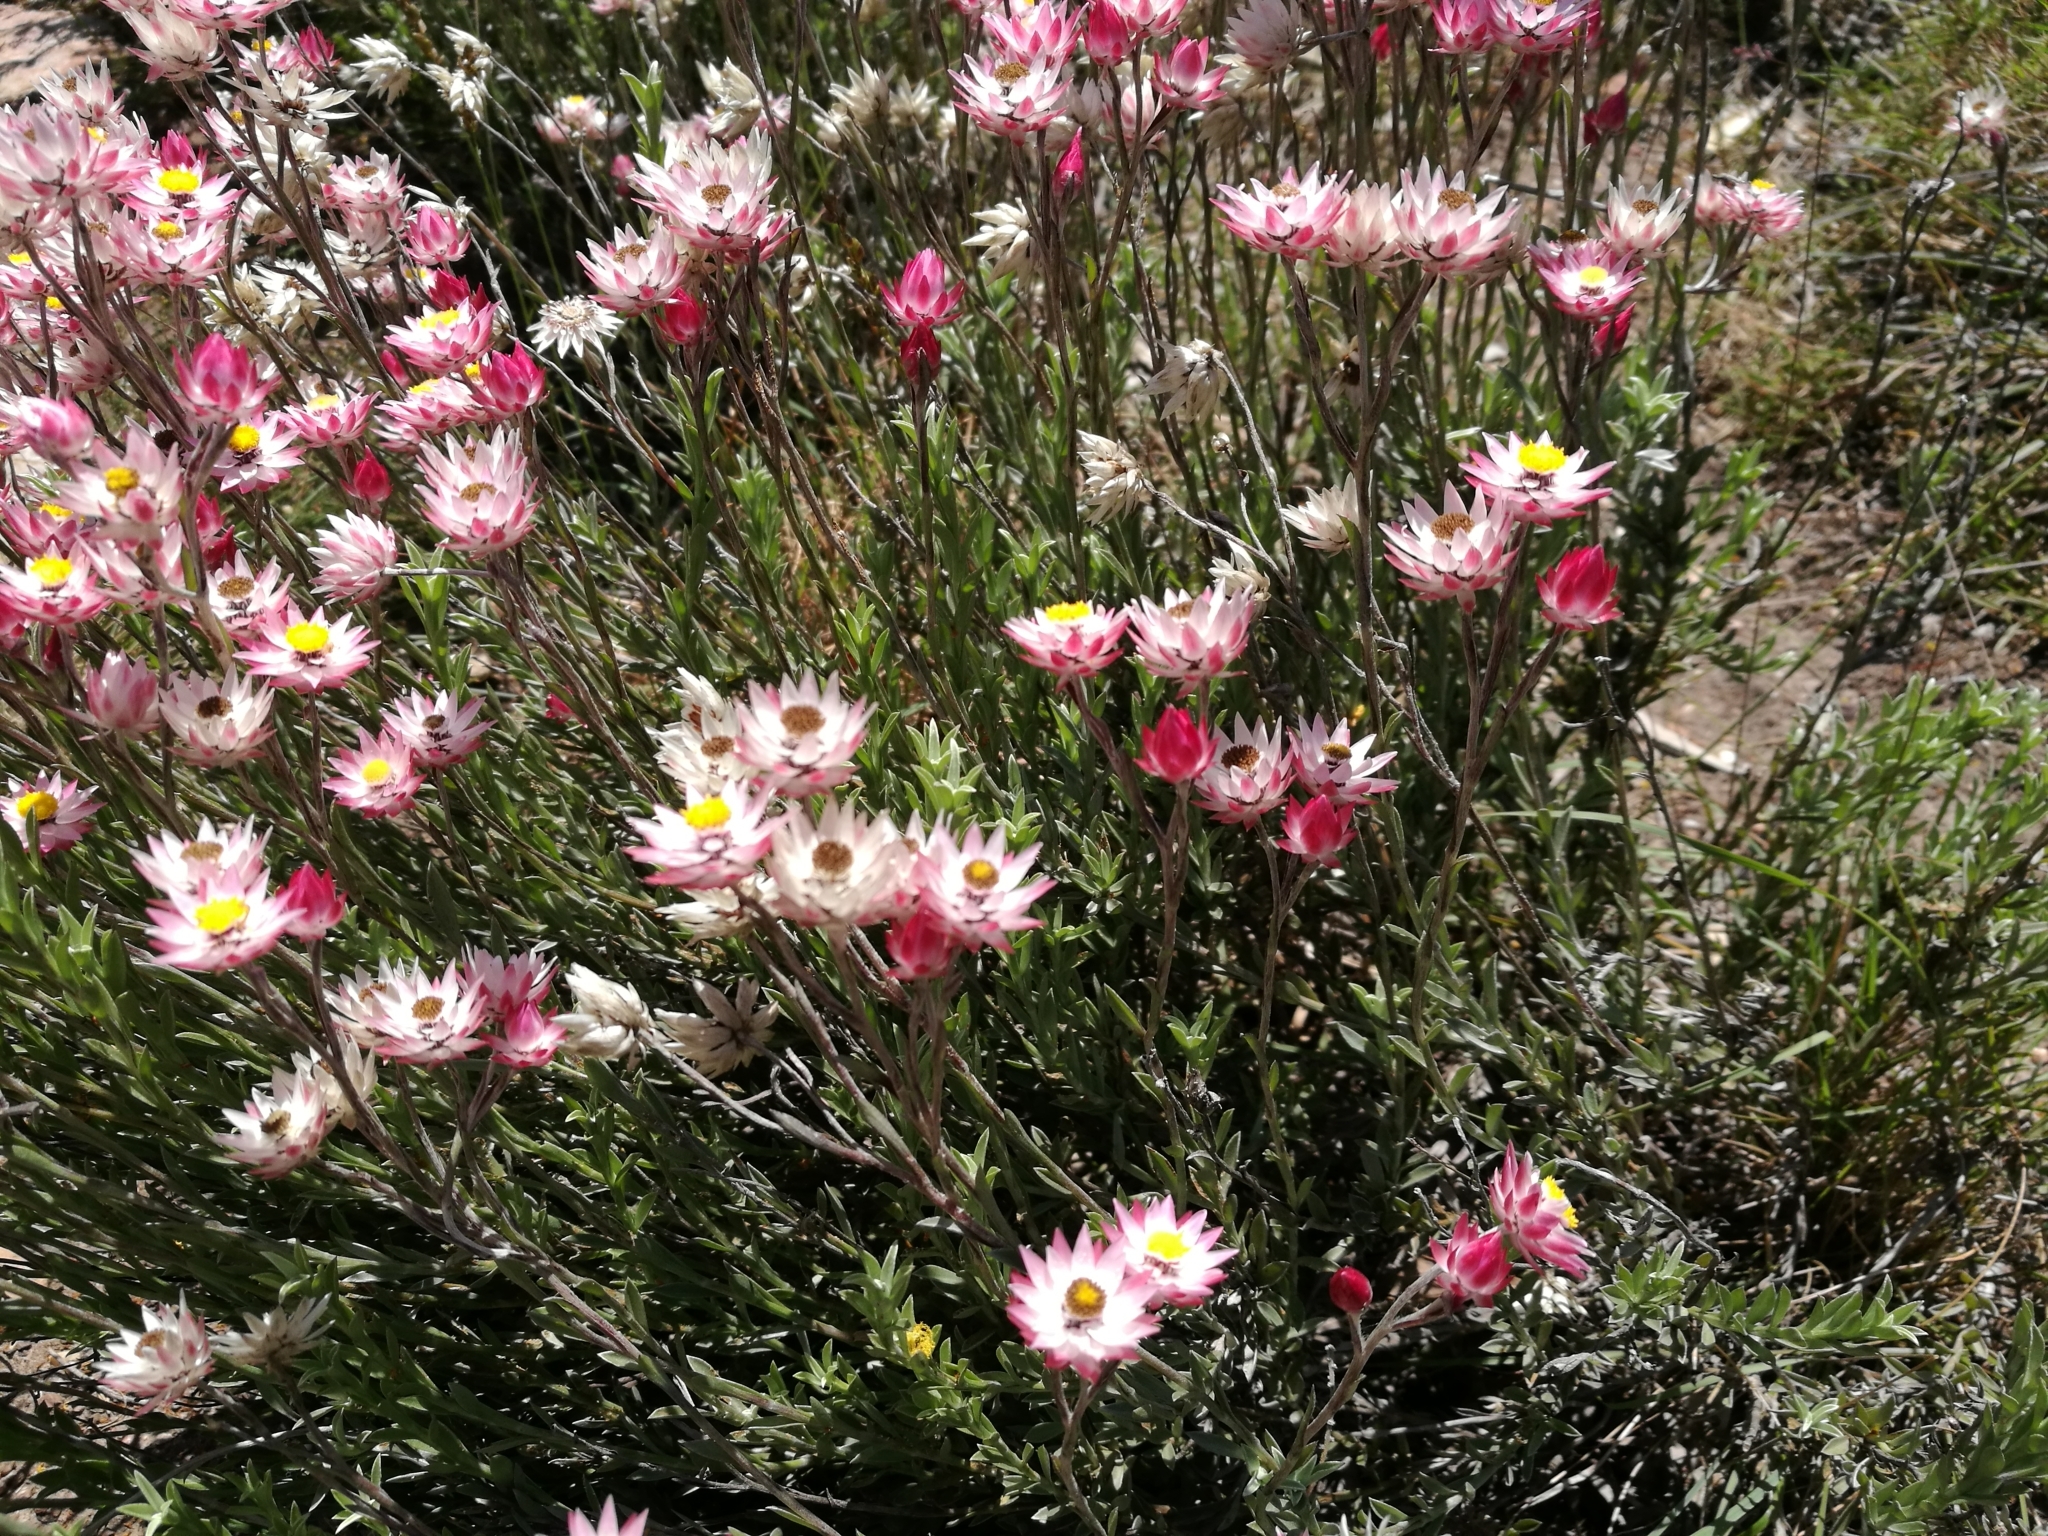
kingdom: Plantae
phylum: Tracheophyta
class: Magnoliopsida
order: Asterales
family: Asteraceae
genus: Achyranthemum
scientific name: Achyranthemum affine
